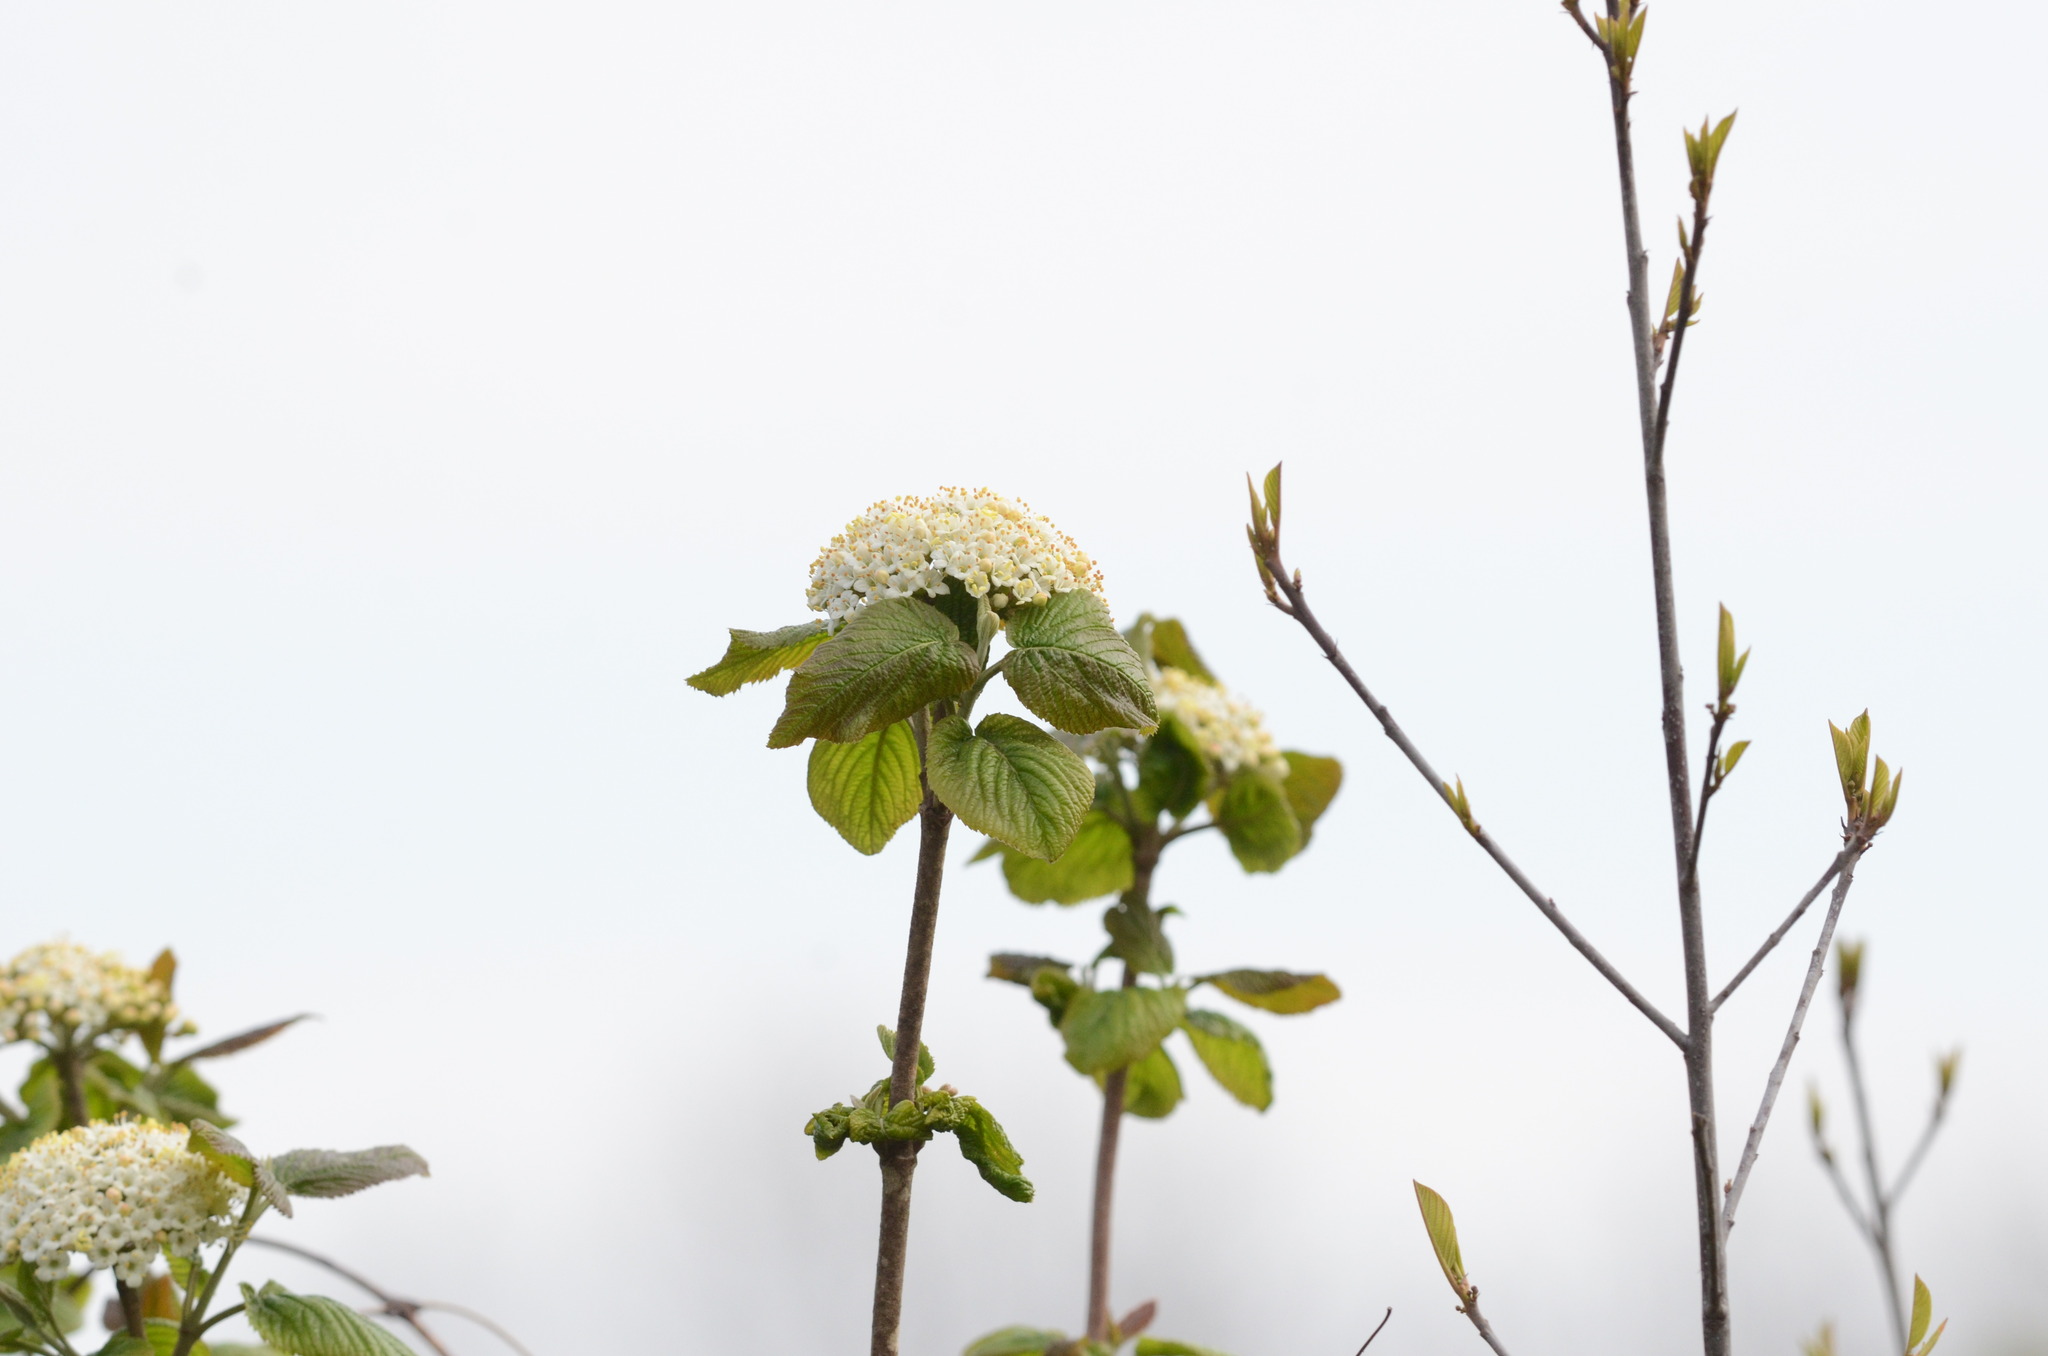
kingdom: Plantae
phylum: Tracheophyta
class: Magnoliopsida
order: Dipsacales
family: Viburnaceae
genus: Viburnum
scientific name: Viburnum lantana
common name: Wayfaring tree
